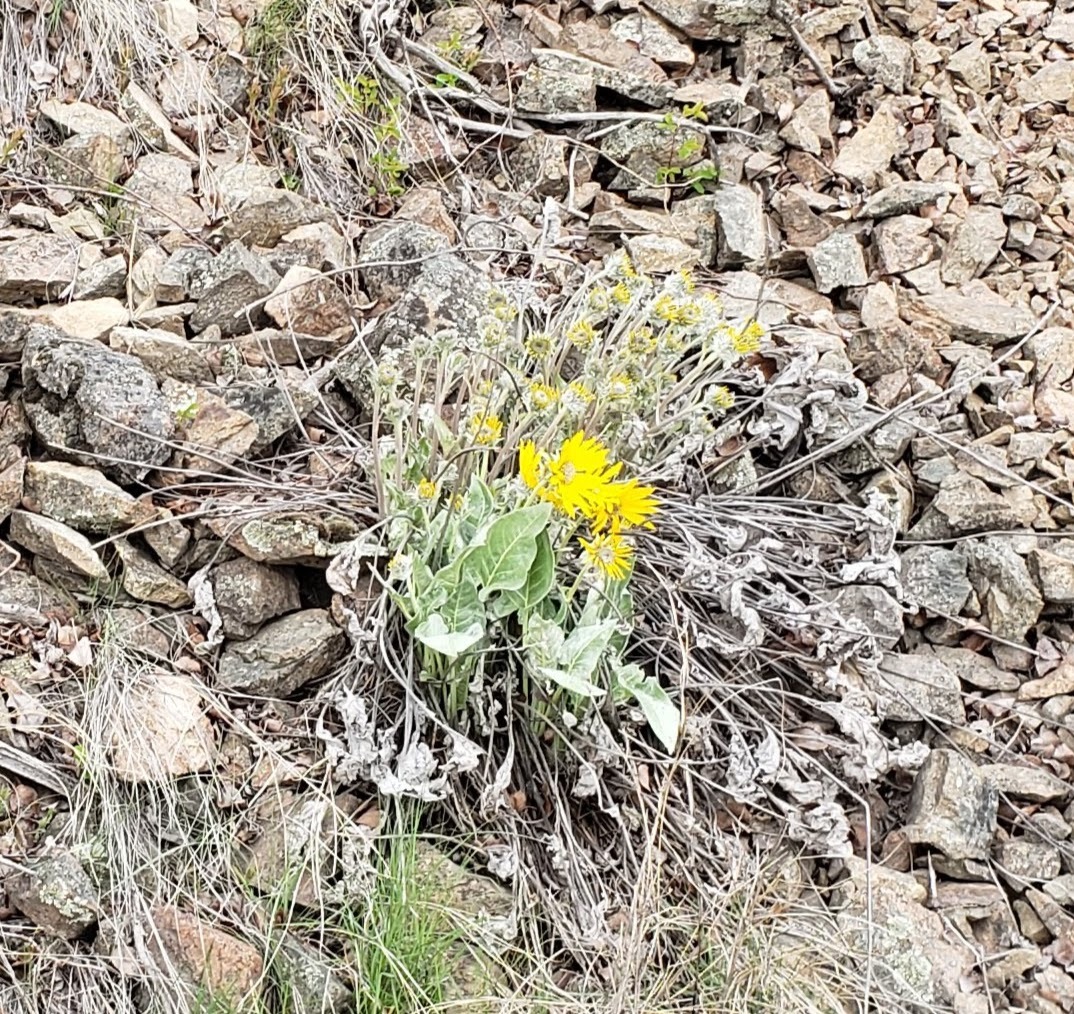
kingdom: Plantae
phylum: Tracheophyta
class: Magnoliopsida
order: Asterales
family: Asteraceae
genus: Wyethia
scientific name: Wyethia sagittata
